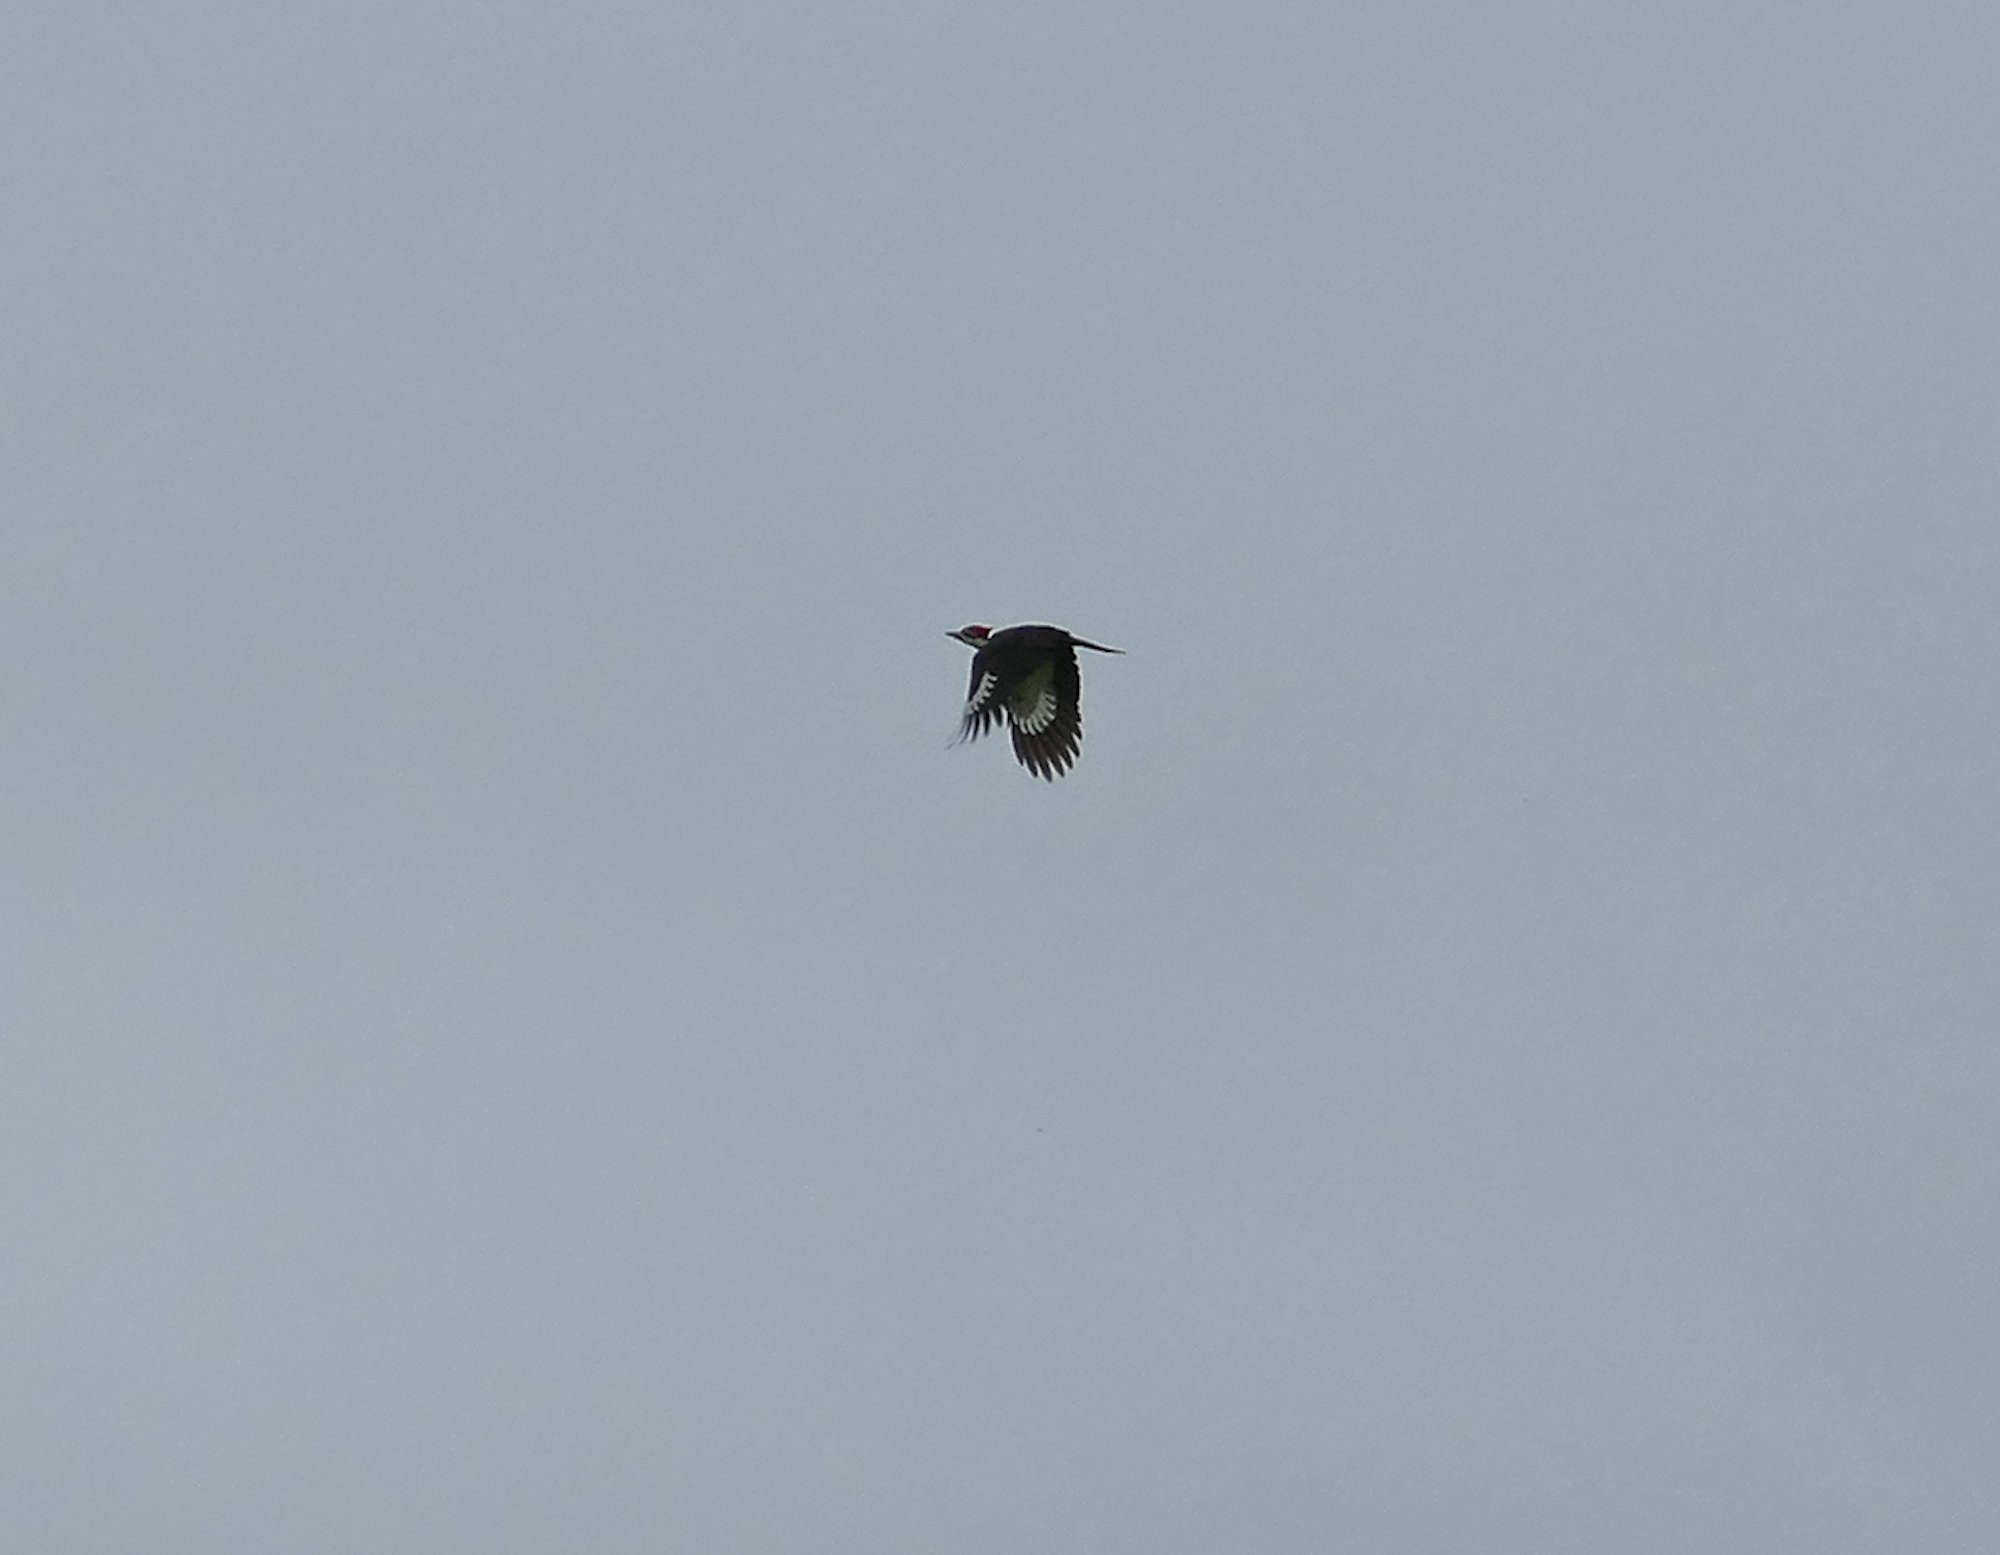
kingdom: Animalia
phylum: Chordata
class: Aves
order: Piciformes
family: Picidae
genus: Dryocopus
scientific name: Dryocopus pileatus
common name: Pileated woodpecker
